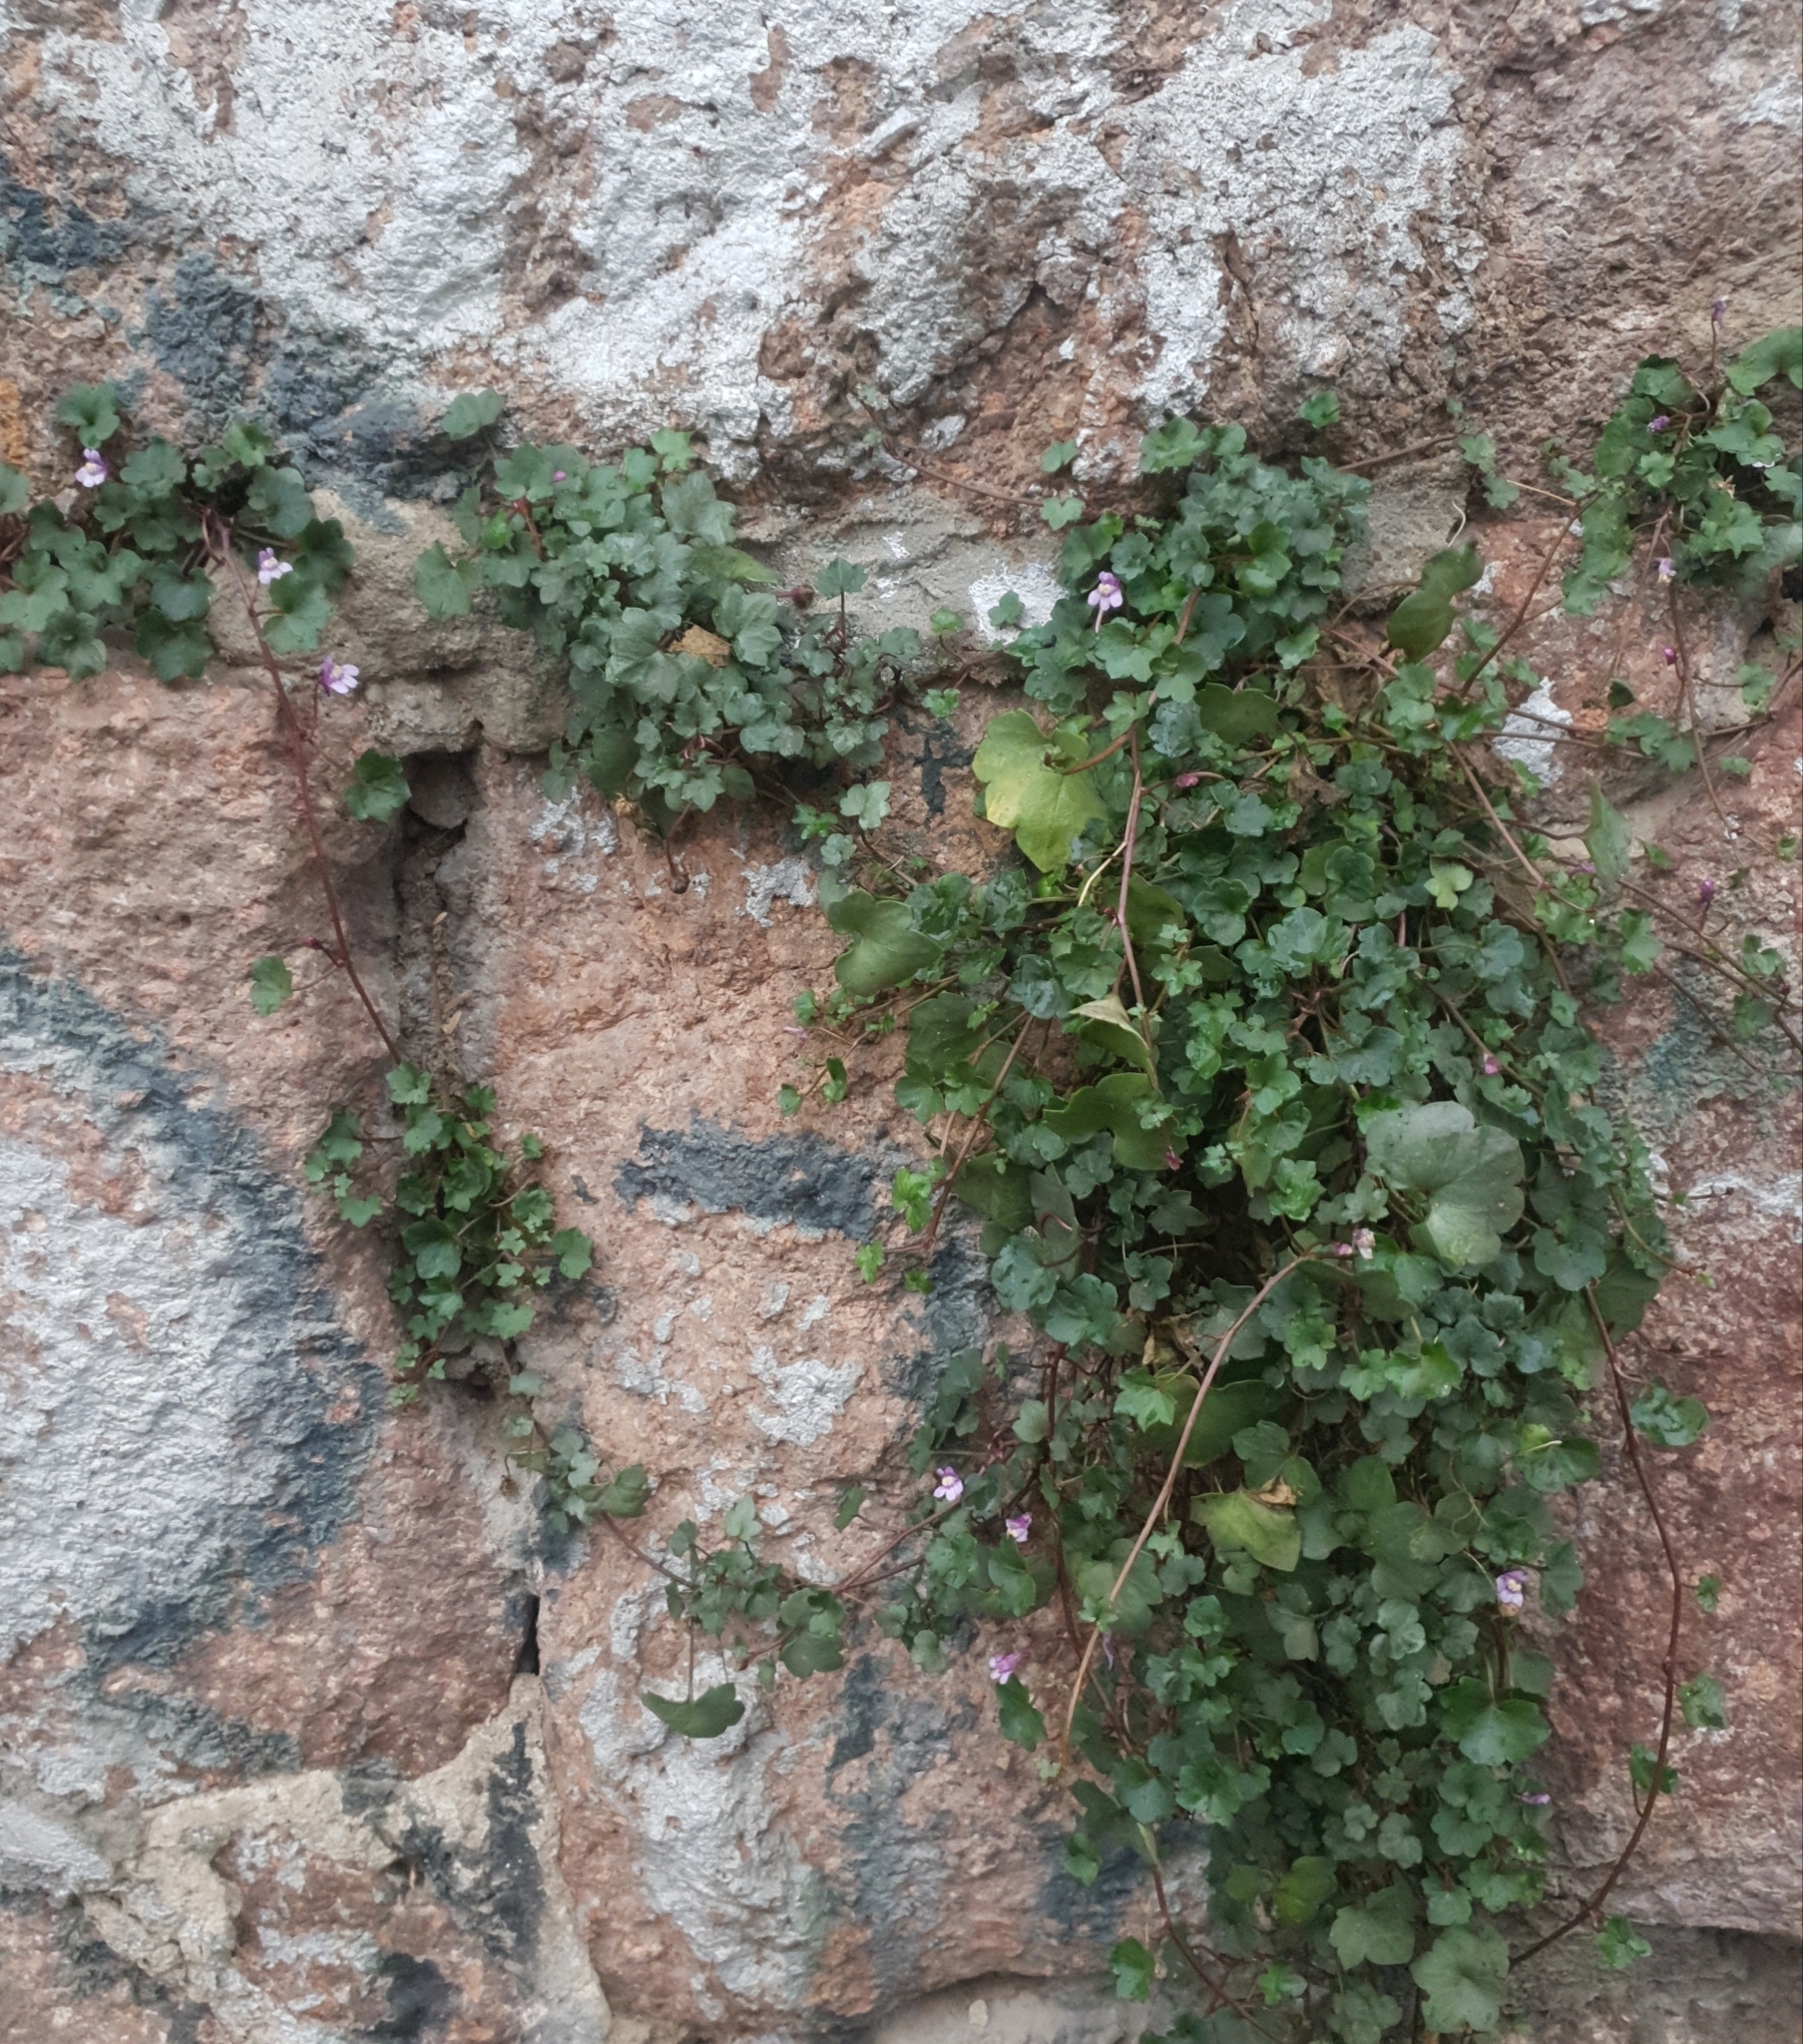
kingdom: Plantae
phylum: Tracheophyta
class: Magnoliopsida
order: Lamiales
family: Plantaginaceae
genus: Cymbalaria
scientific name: Cymbalaria muralis
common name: Ivy-leaved toadflax
